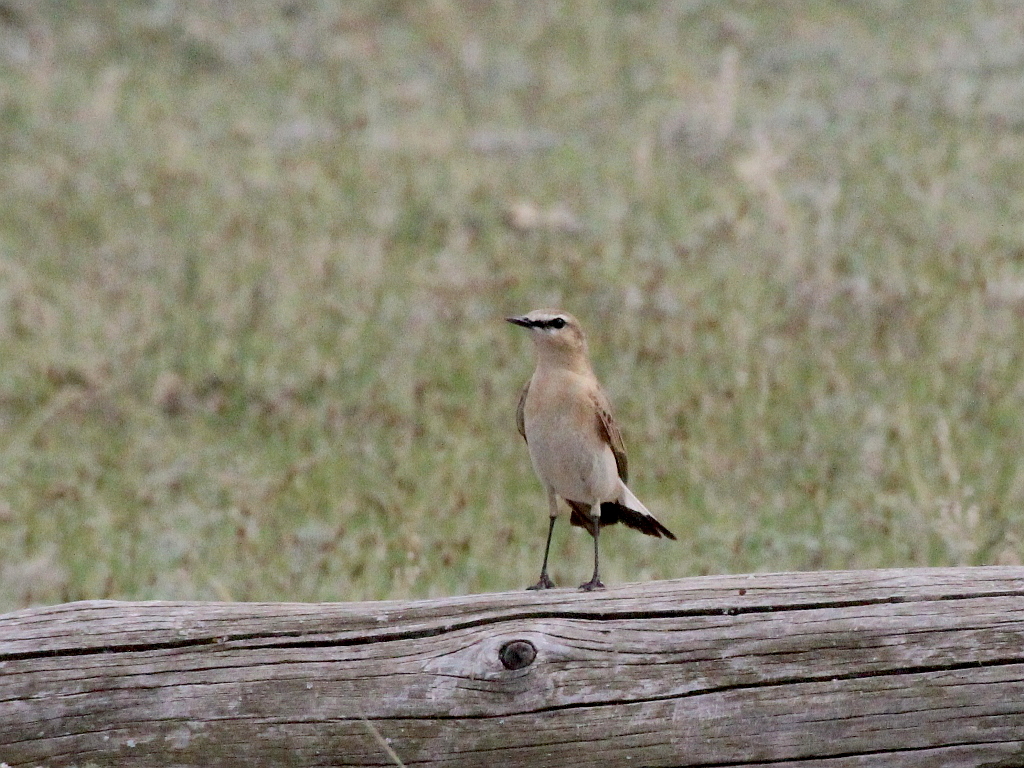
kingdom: Animalia
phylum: Chordata
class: Aves
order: Passeriformes
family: Muscicapidae
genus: Oenanthe
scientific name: Oenanthe isabellina
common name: Isabelline wheatear
